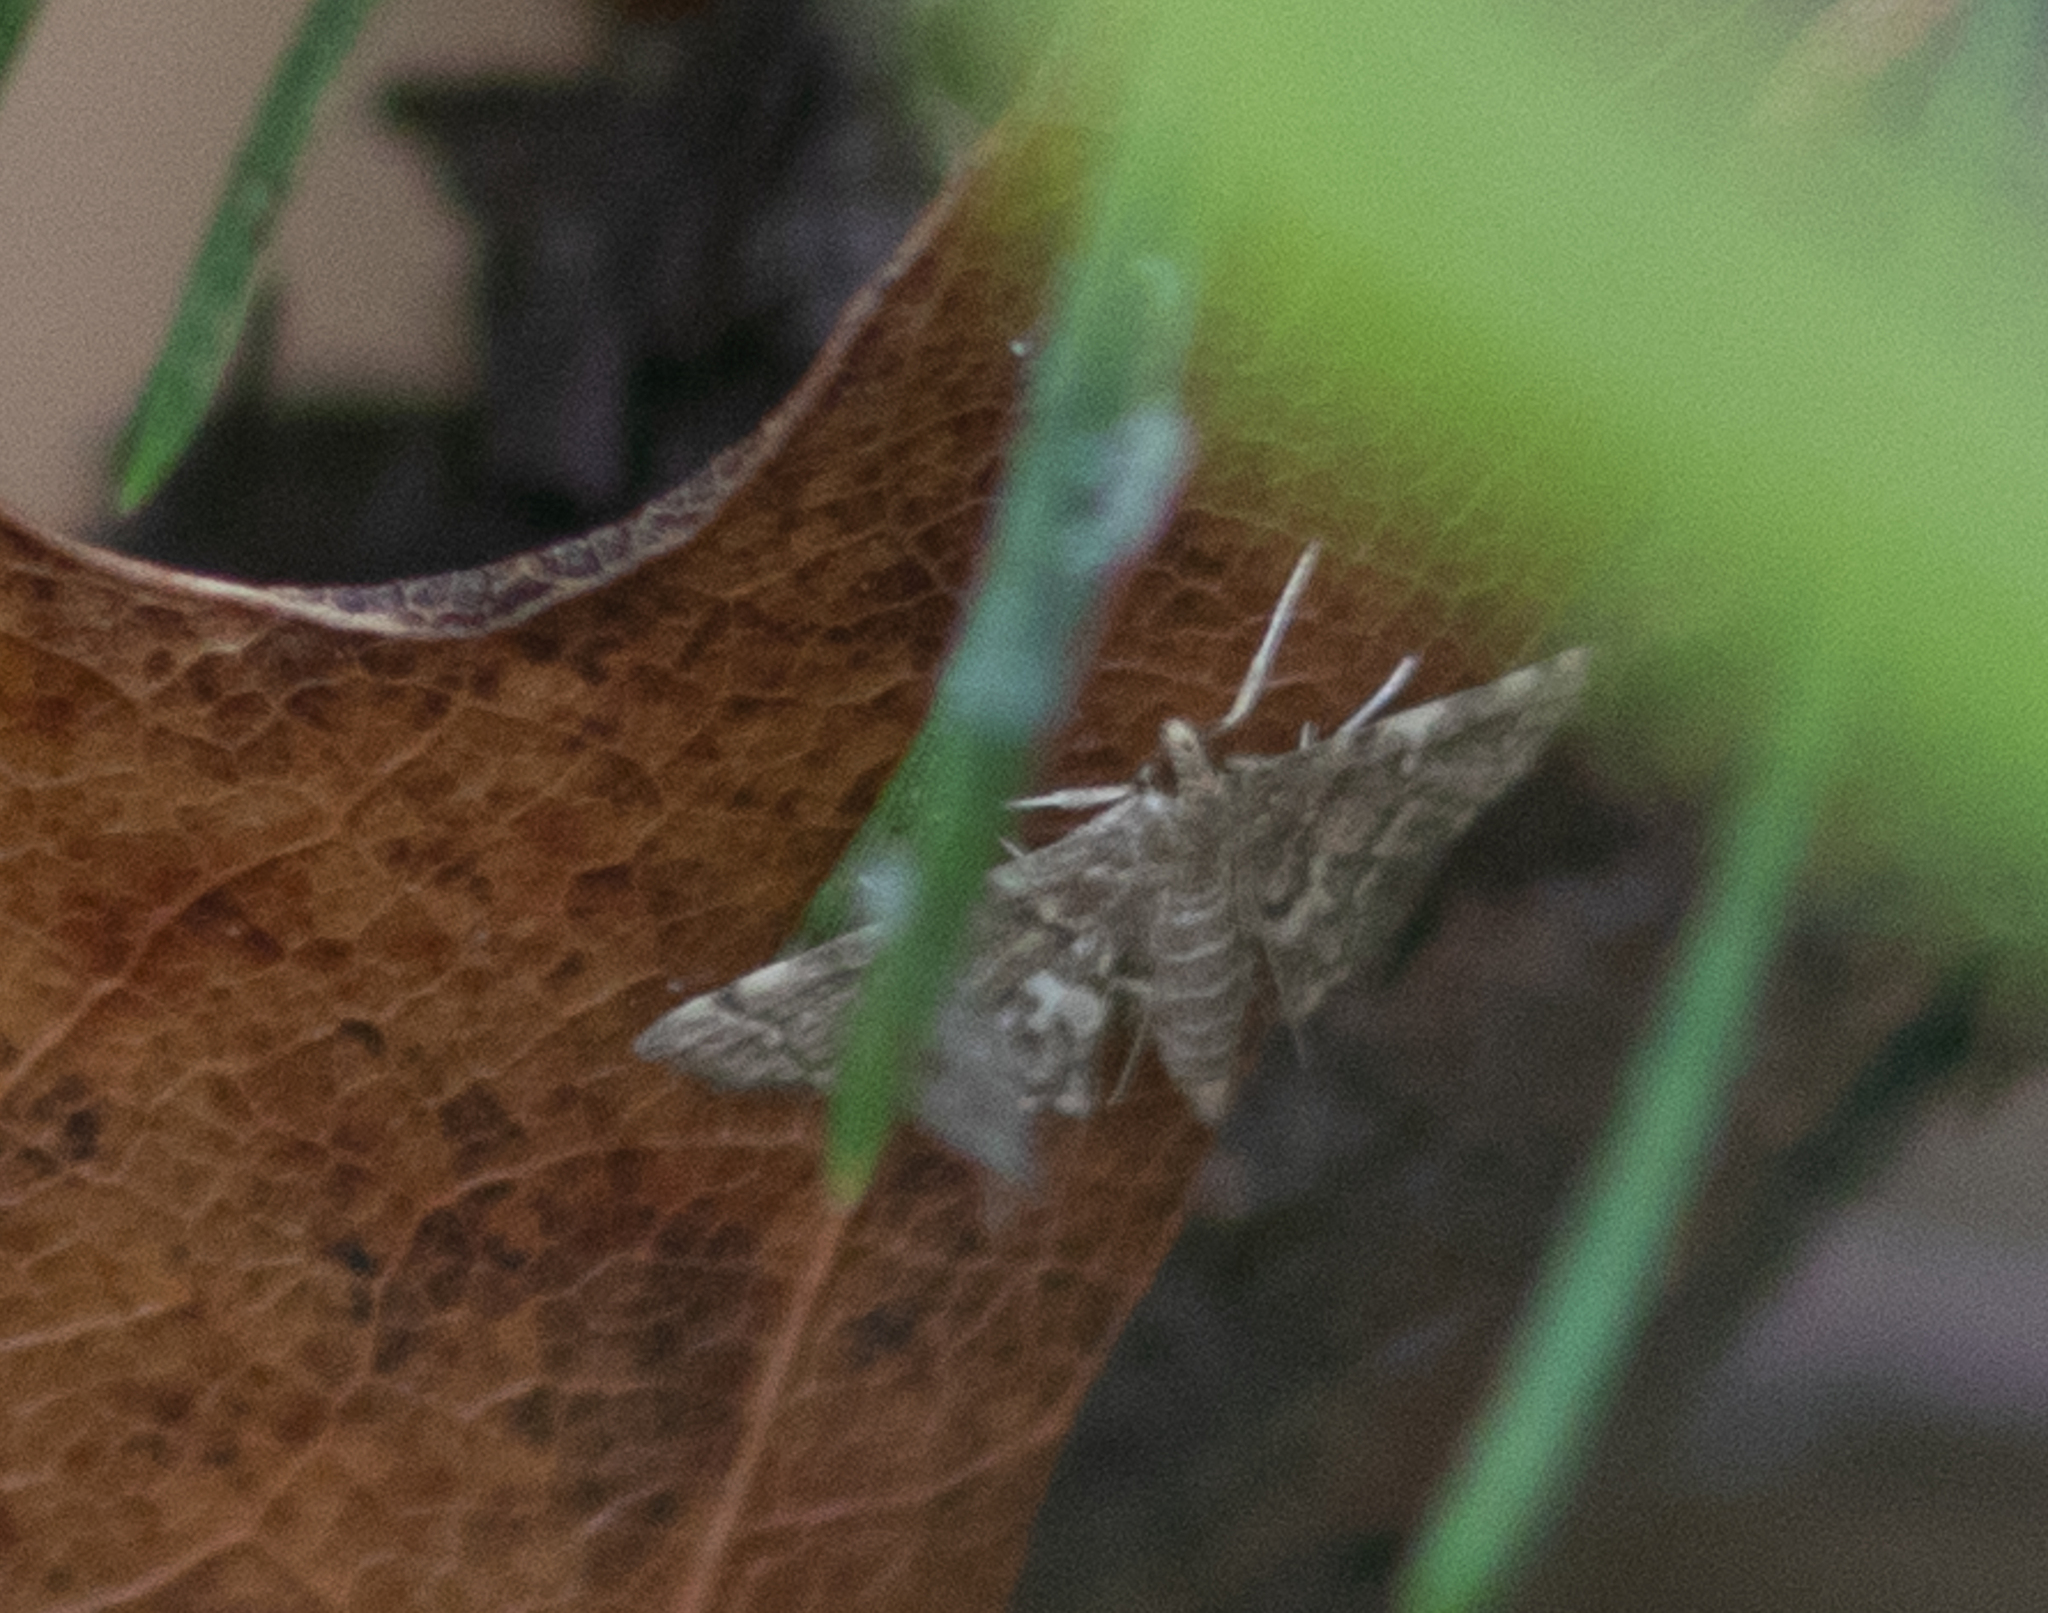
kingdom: Animalia
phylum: Arthropoda
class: Insecta
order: Lepidoptera
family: Crambidae
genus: Anageshna
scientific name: Anageshna primordialis
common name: Yellow-spotted webworm moth
